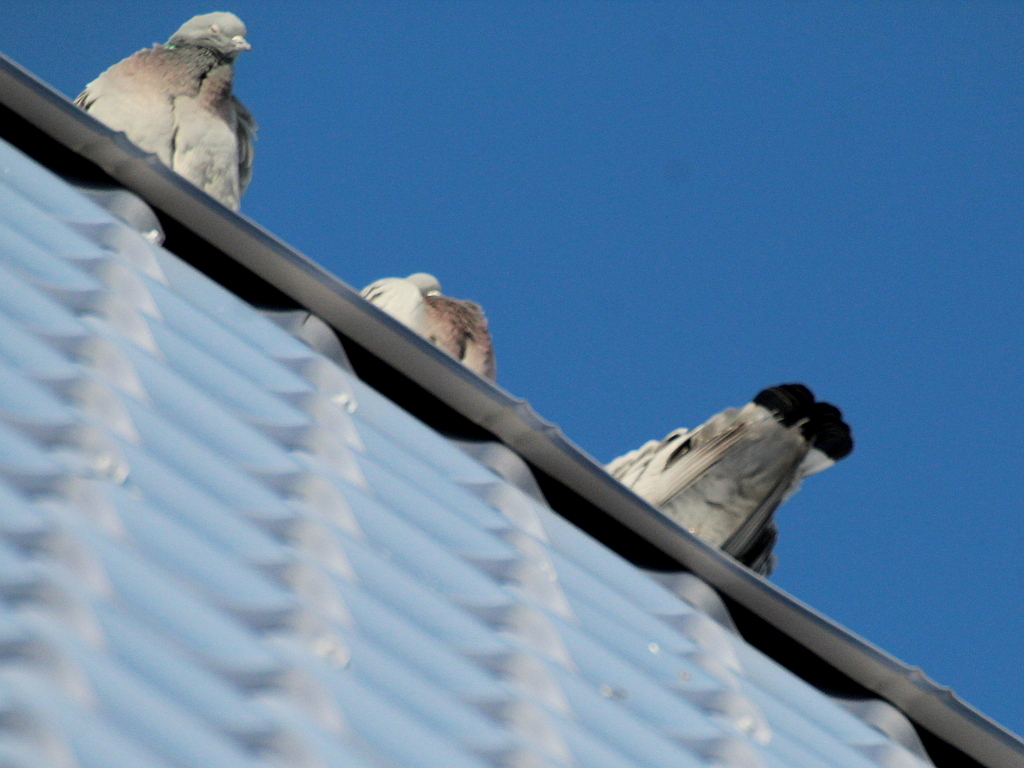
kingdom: Animalia
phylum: Chordata
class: Aves
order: Columbiformes
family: Columbidae
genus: Columba
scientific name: Columba rupestris
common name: Hill pigeon
